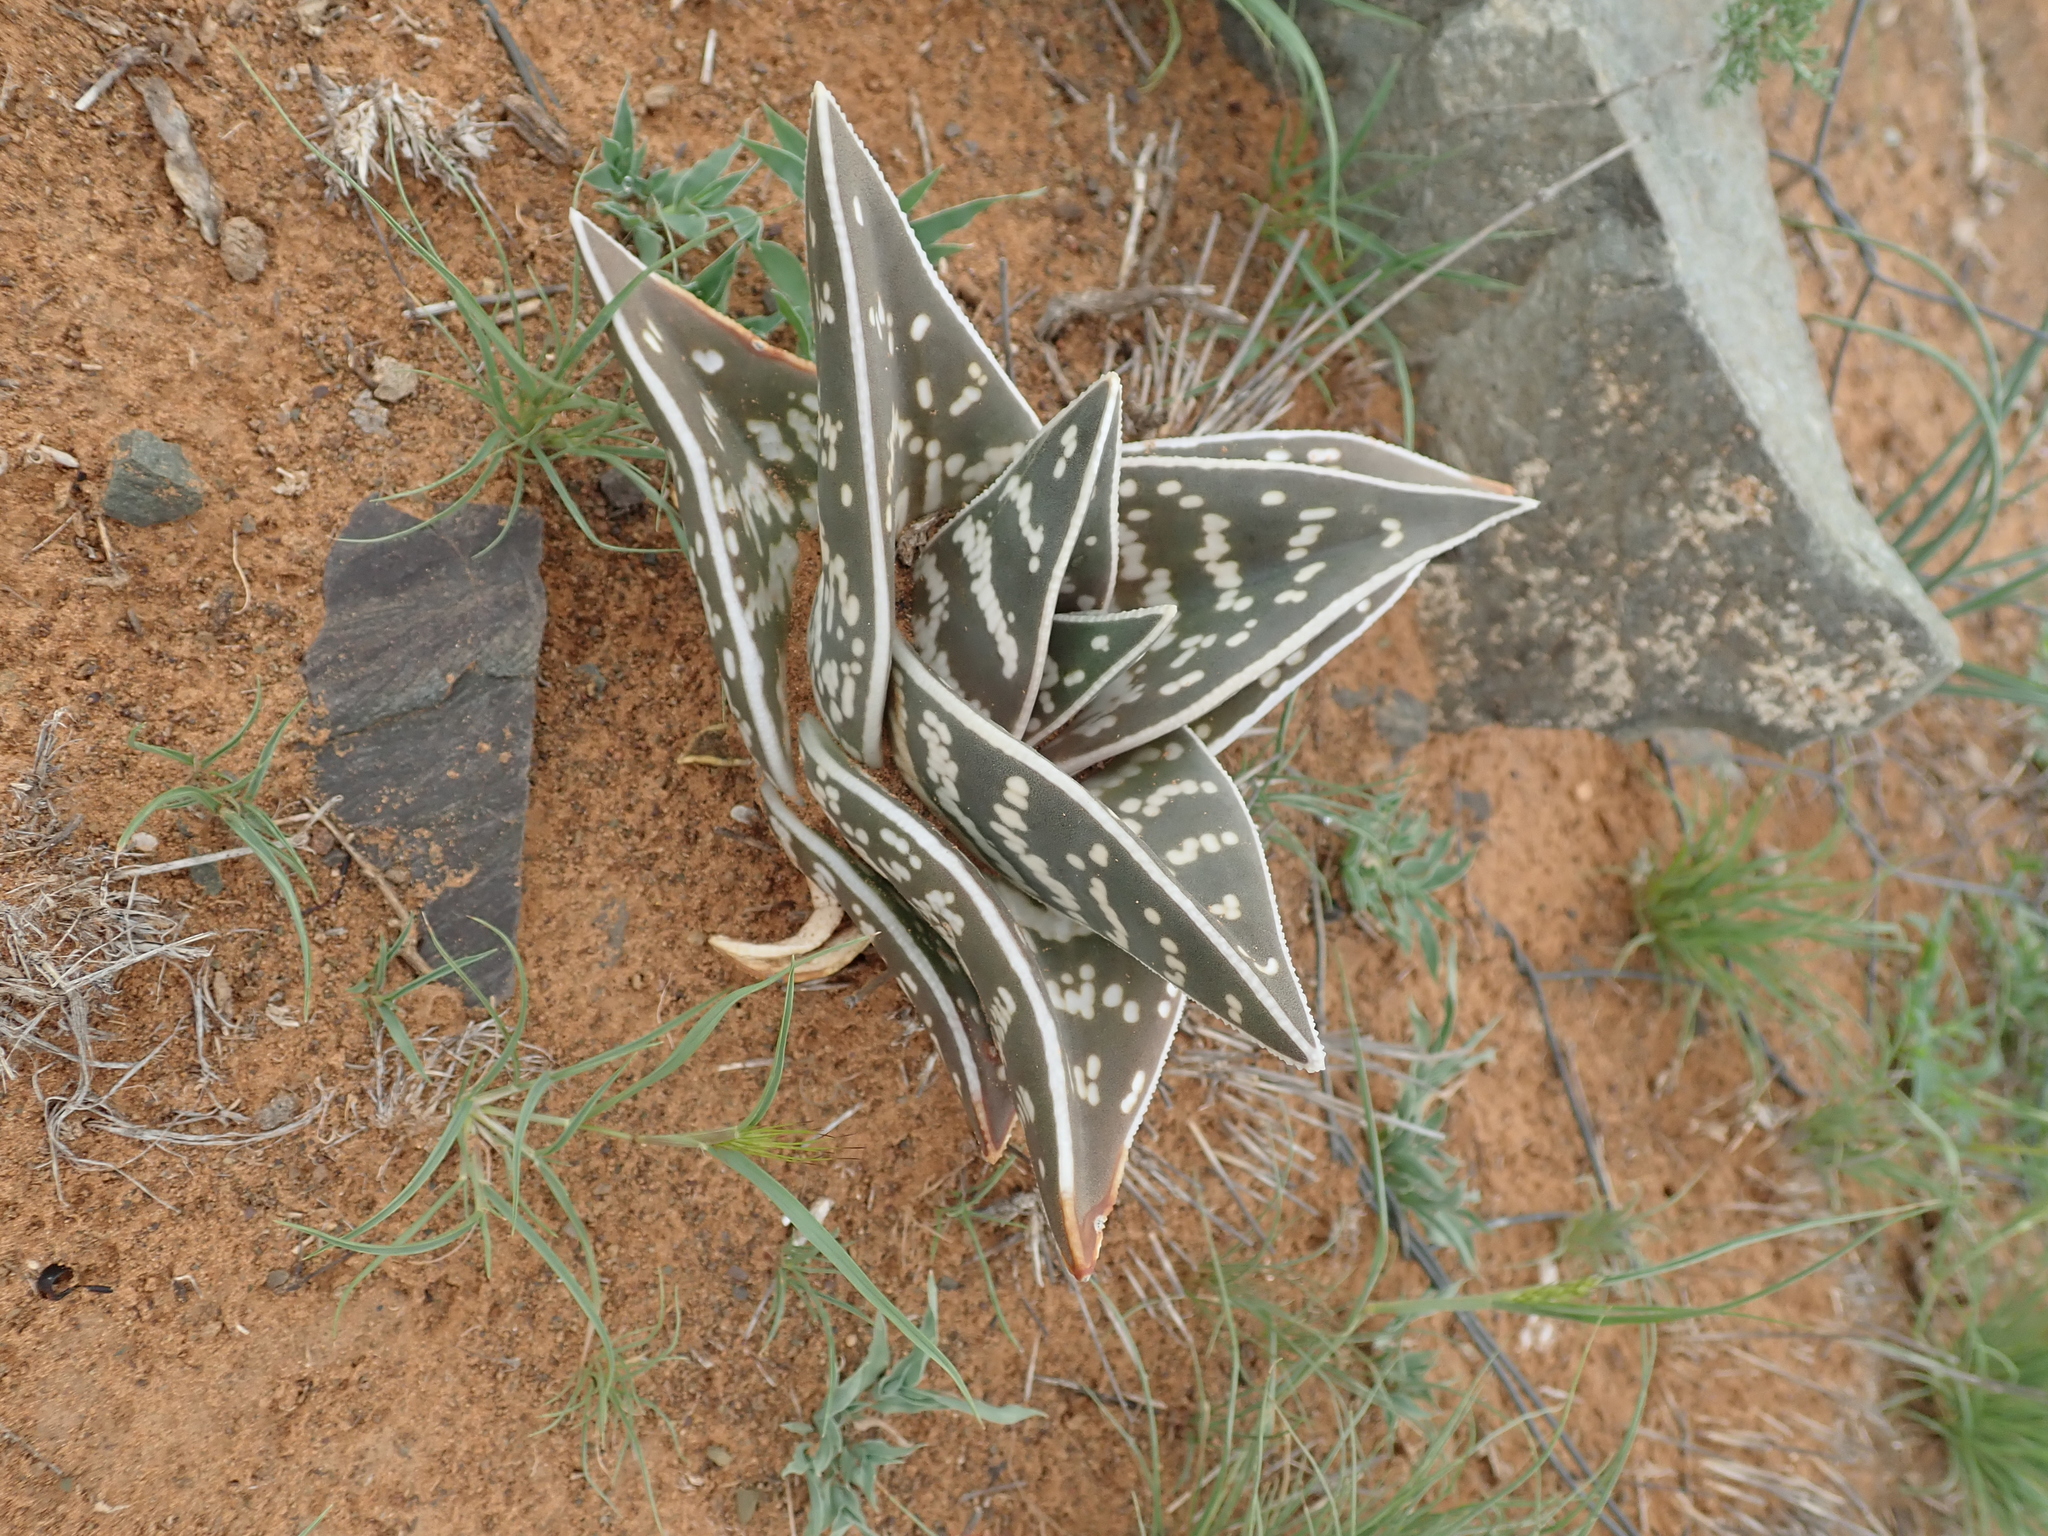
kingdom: Plantae
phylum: Tracheophyta
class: Liliopsida
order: Asparagales
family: Asphodelaceae
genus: Gonialoe
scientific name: Gonialoe variegata
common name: Aloe variegata
